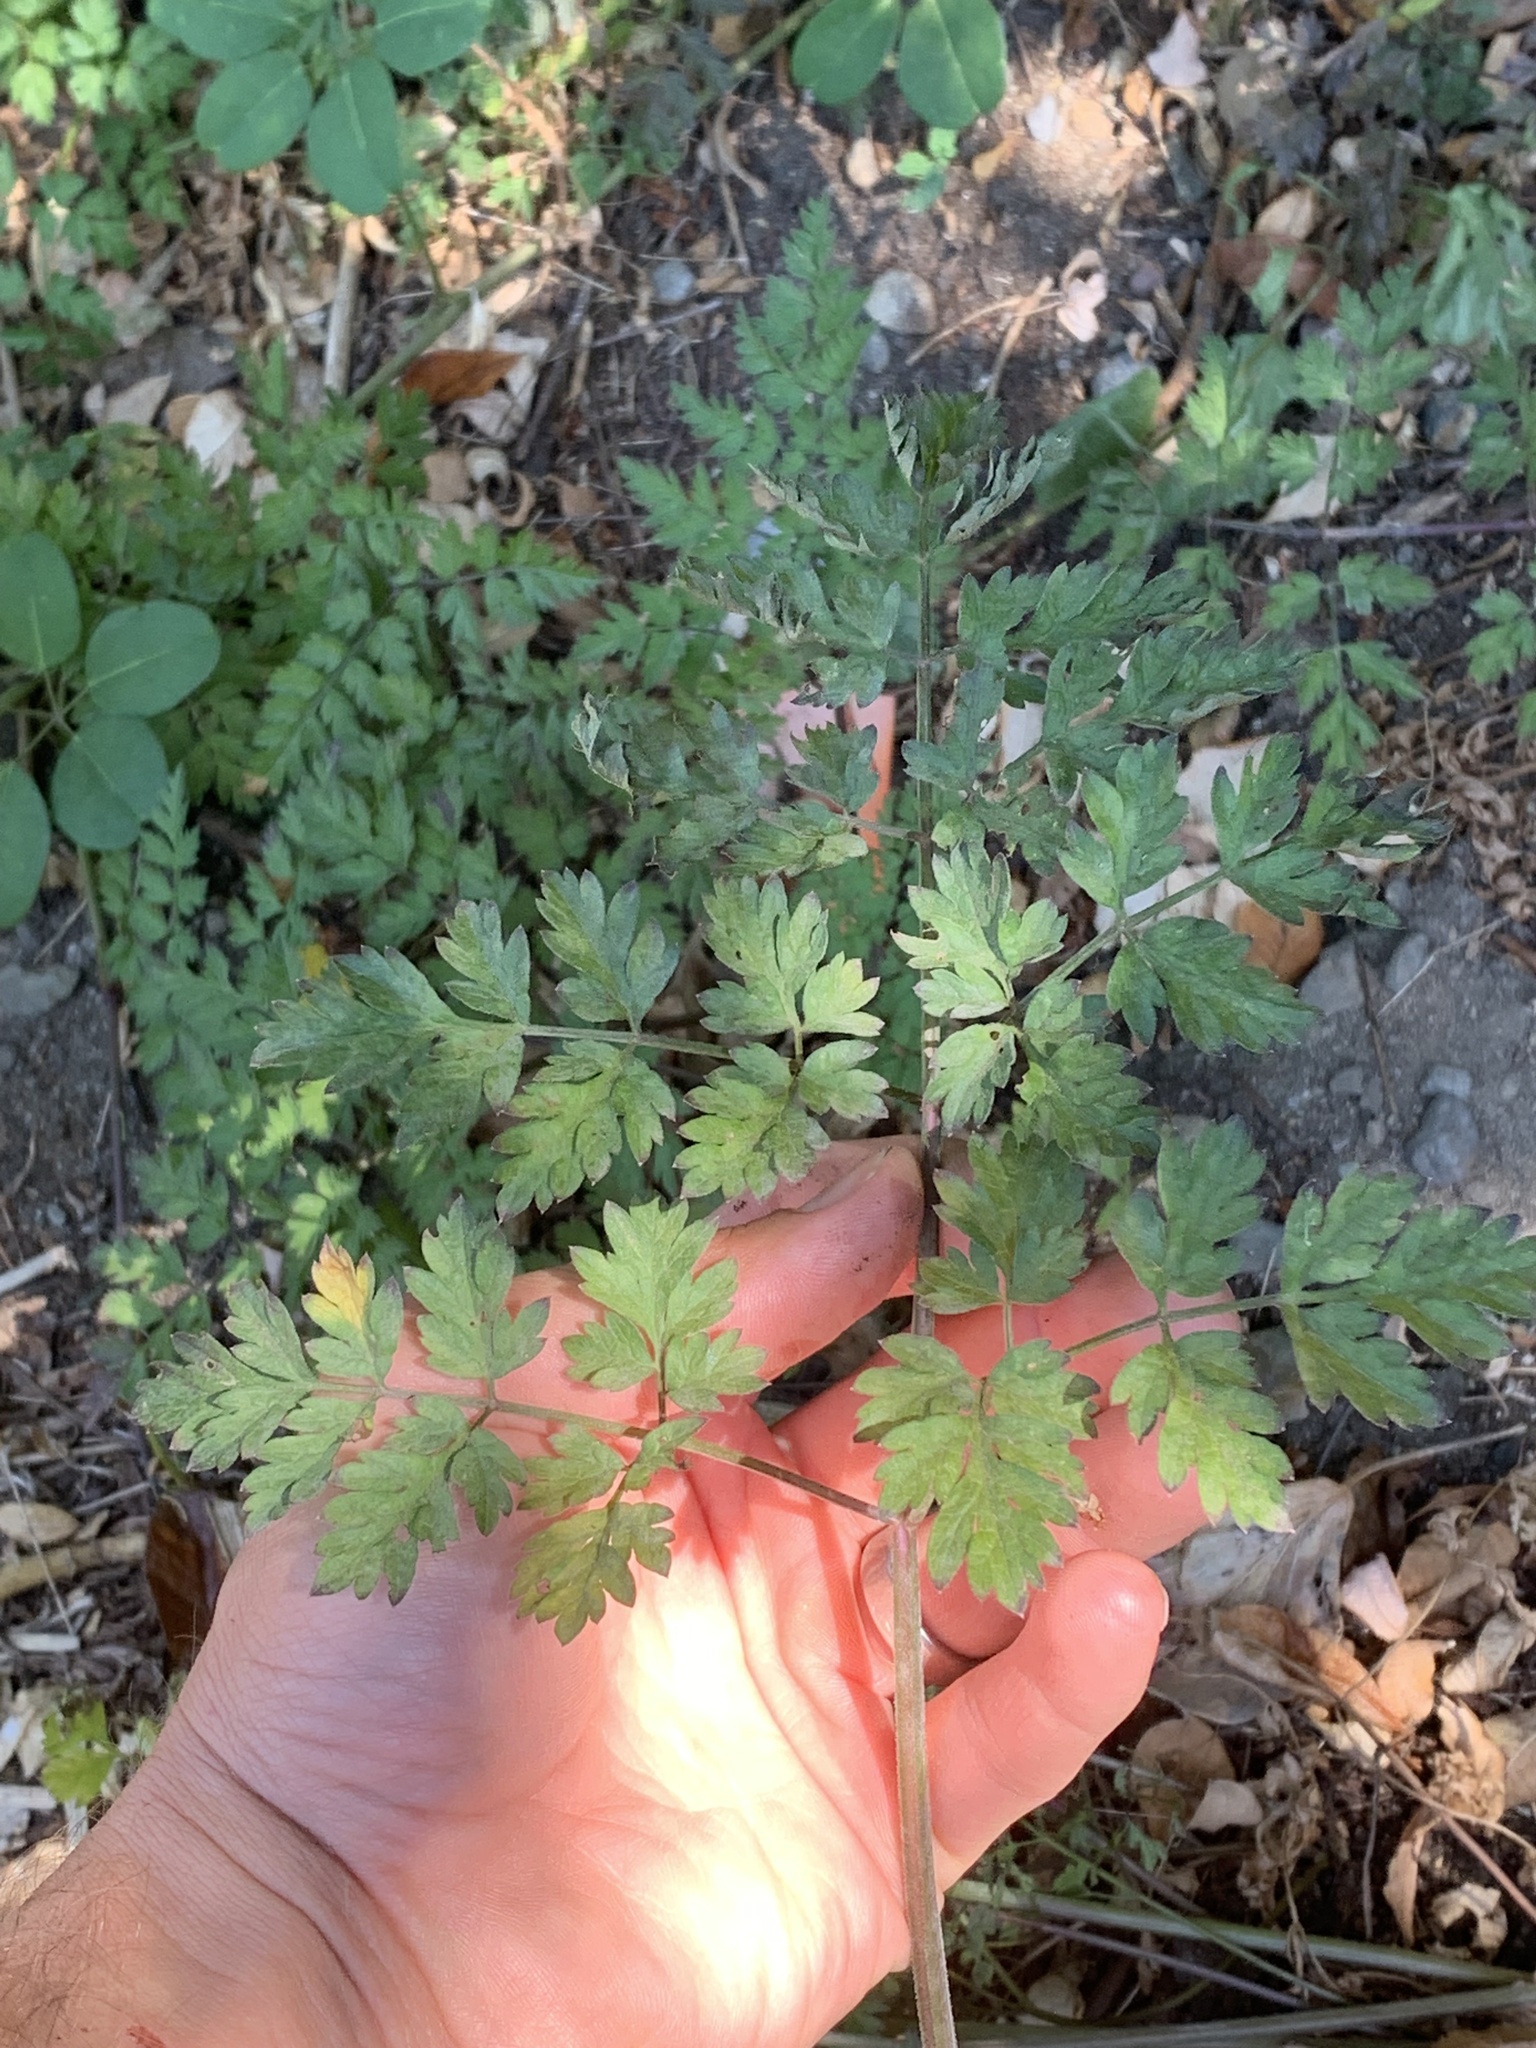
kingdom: Plantae
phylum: Tracheophyta
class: Magnoliopsida
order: Apiales
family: Apiaceae
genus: Anthriscus
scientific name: Anthriscus sylvestris
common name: Cow parsley
